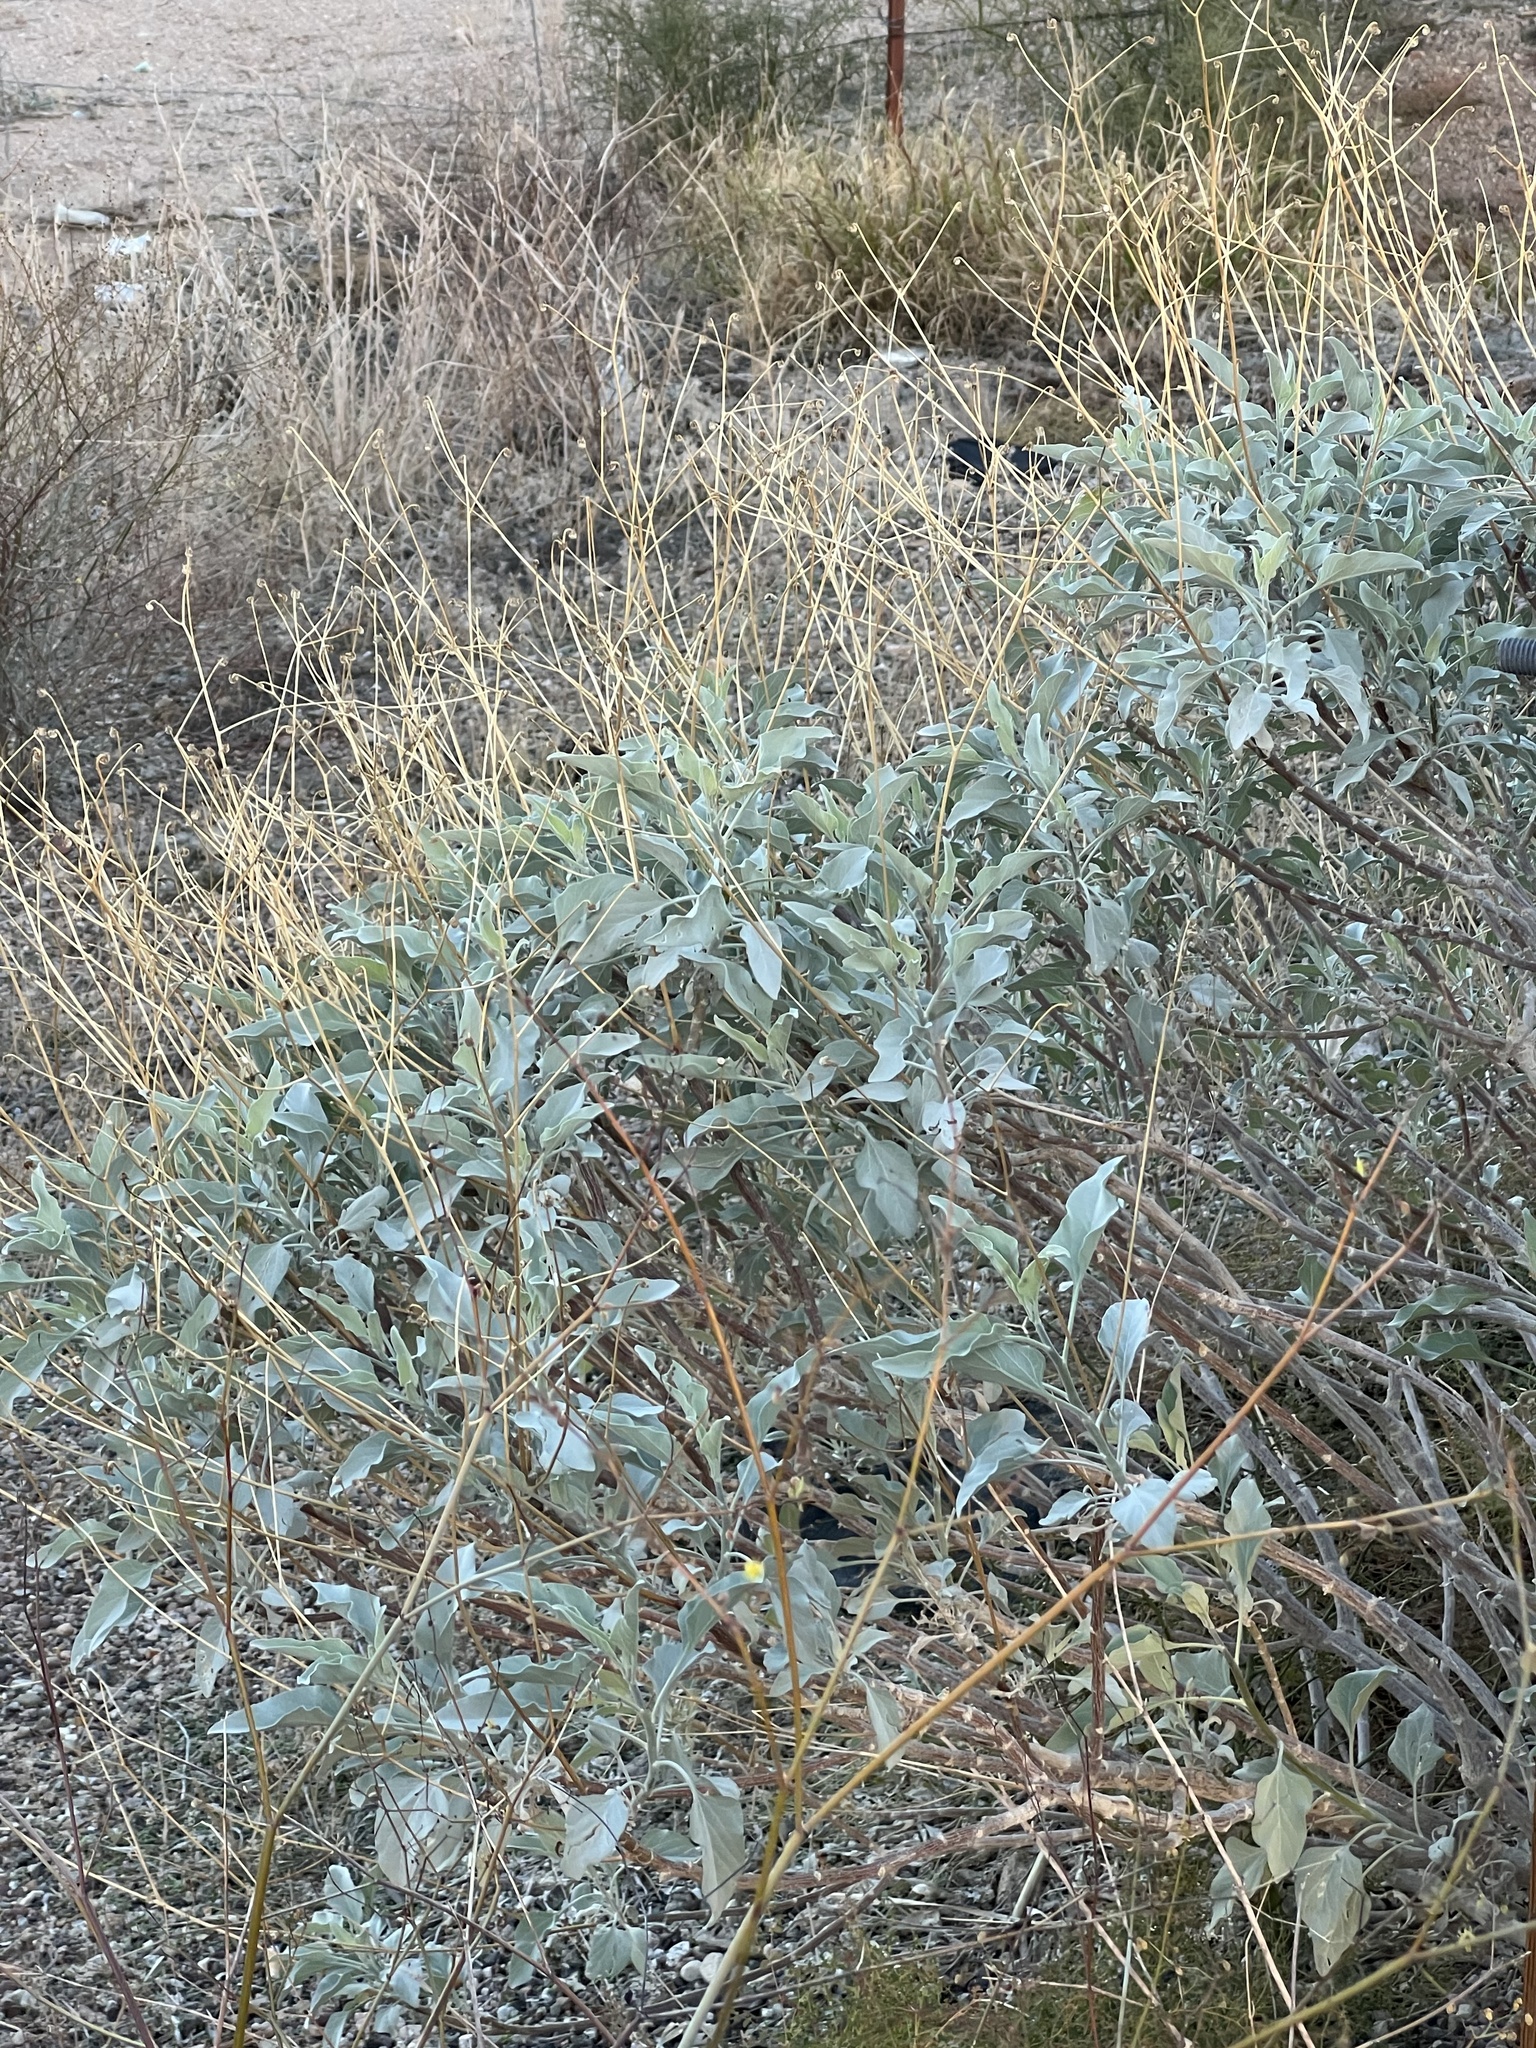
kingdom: Plantae
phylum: Tracheophyta
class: Magnoliopsida
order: Asterales
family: Asteraceae
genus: Encelia
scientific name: Encelia farinosa
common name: Brittlebush
